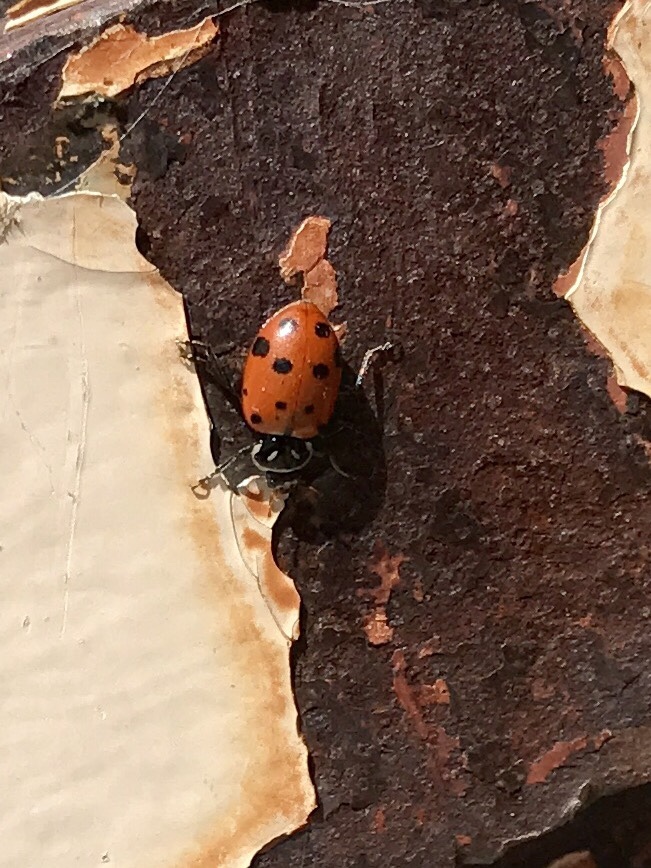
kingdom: Animalia
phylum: Arthropoda
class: Insecta
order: Coleoptera
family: Coccinellidae
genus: Hippodamia
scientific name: Hippodamia convergens
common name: Convergent lady beetle
